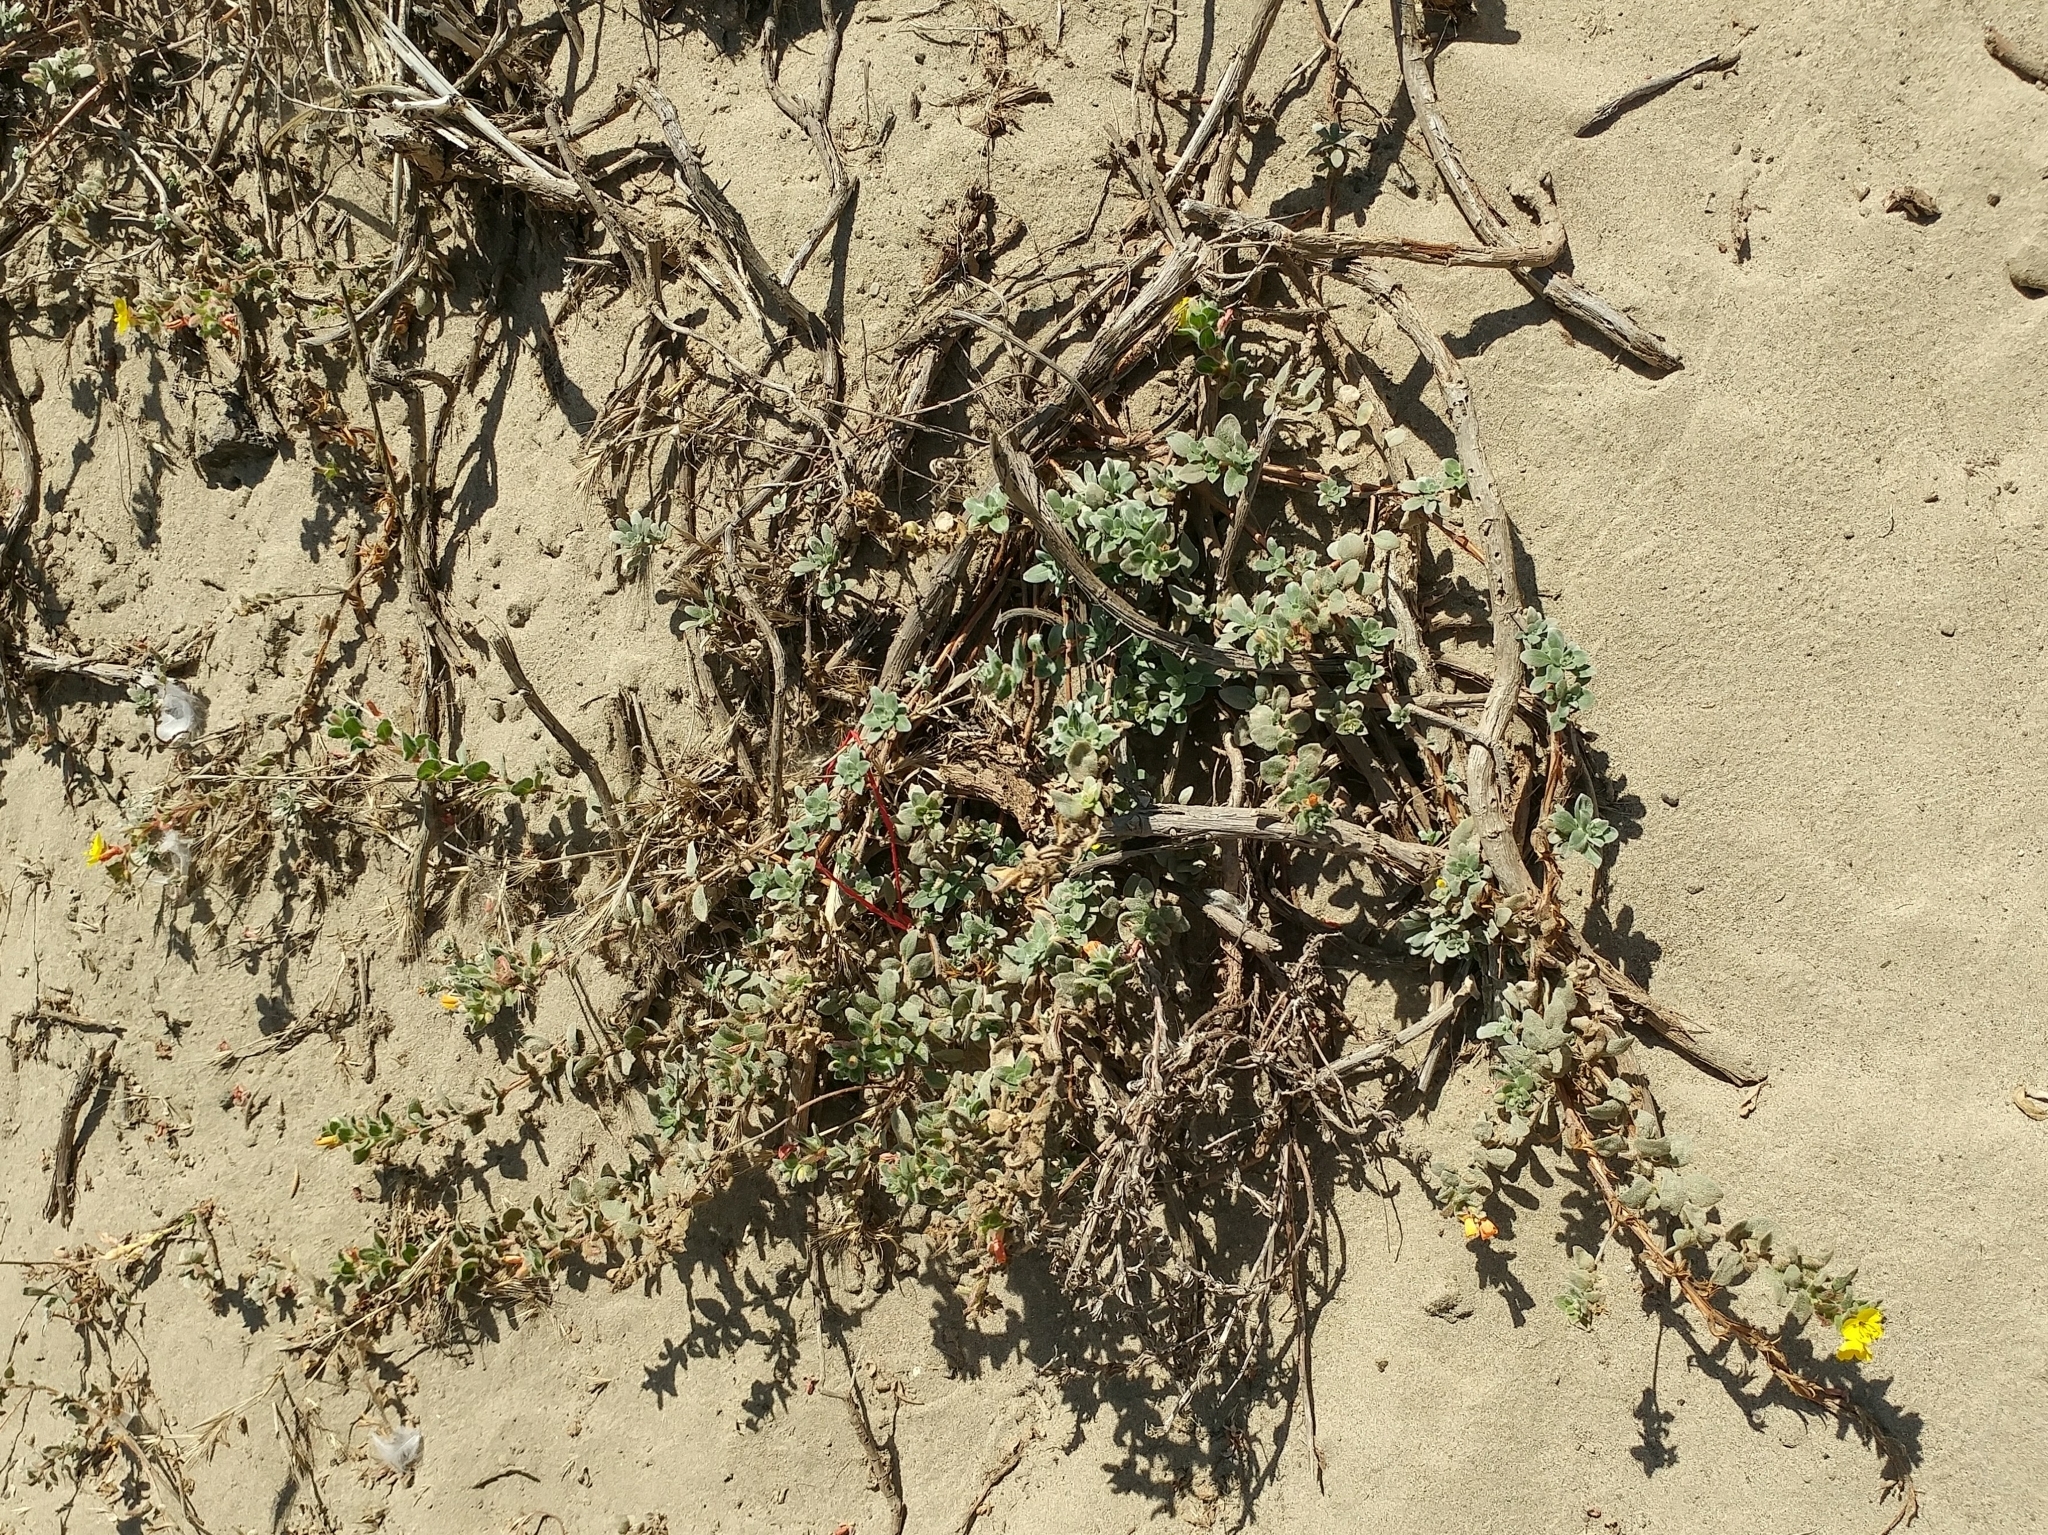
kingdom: Plantae
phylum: Tracheophyta
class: Magnoliopsida
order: Myrtales
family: Onagraceae
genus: Camissoniopsis
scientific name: Camissoniopsis cheiranthifolia
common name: Beach suncup
